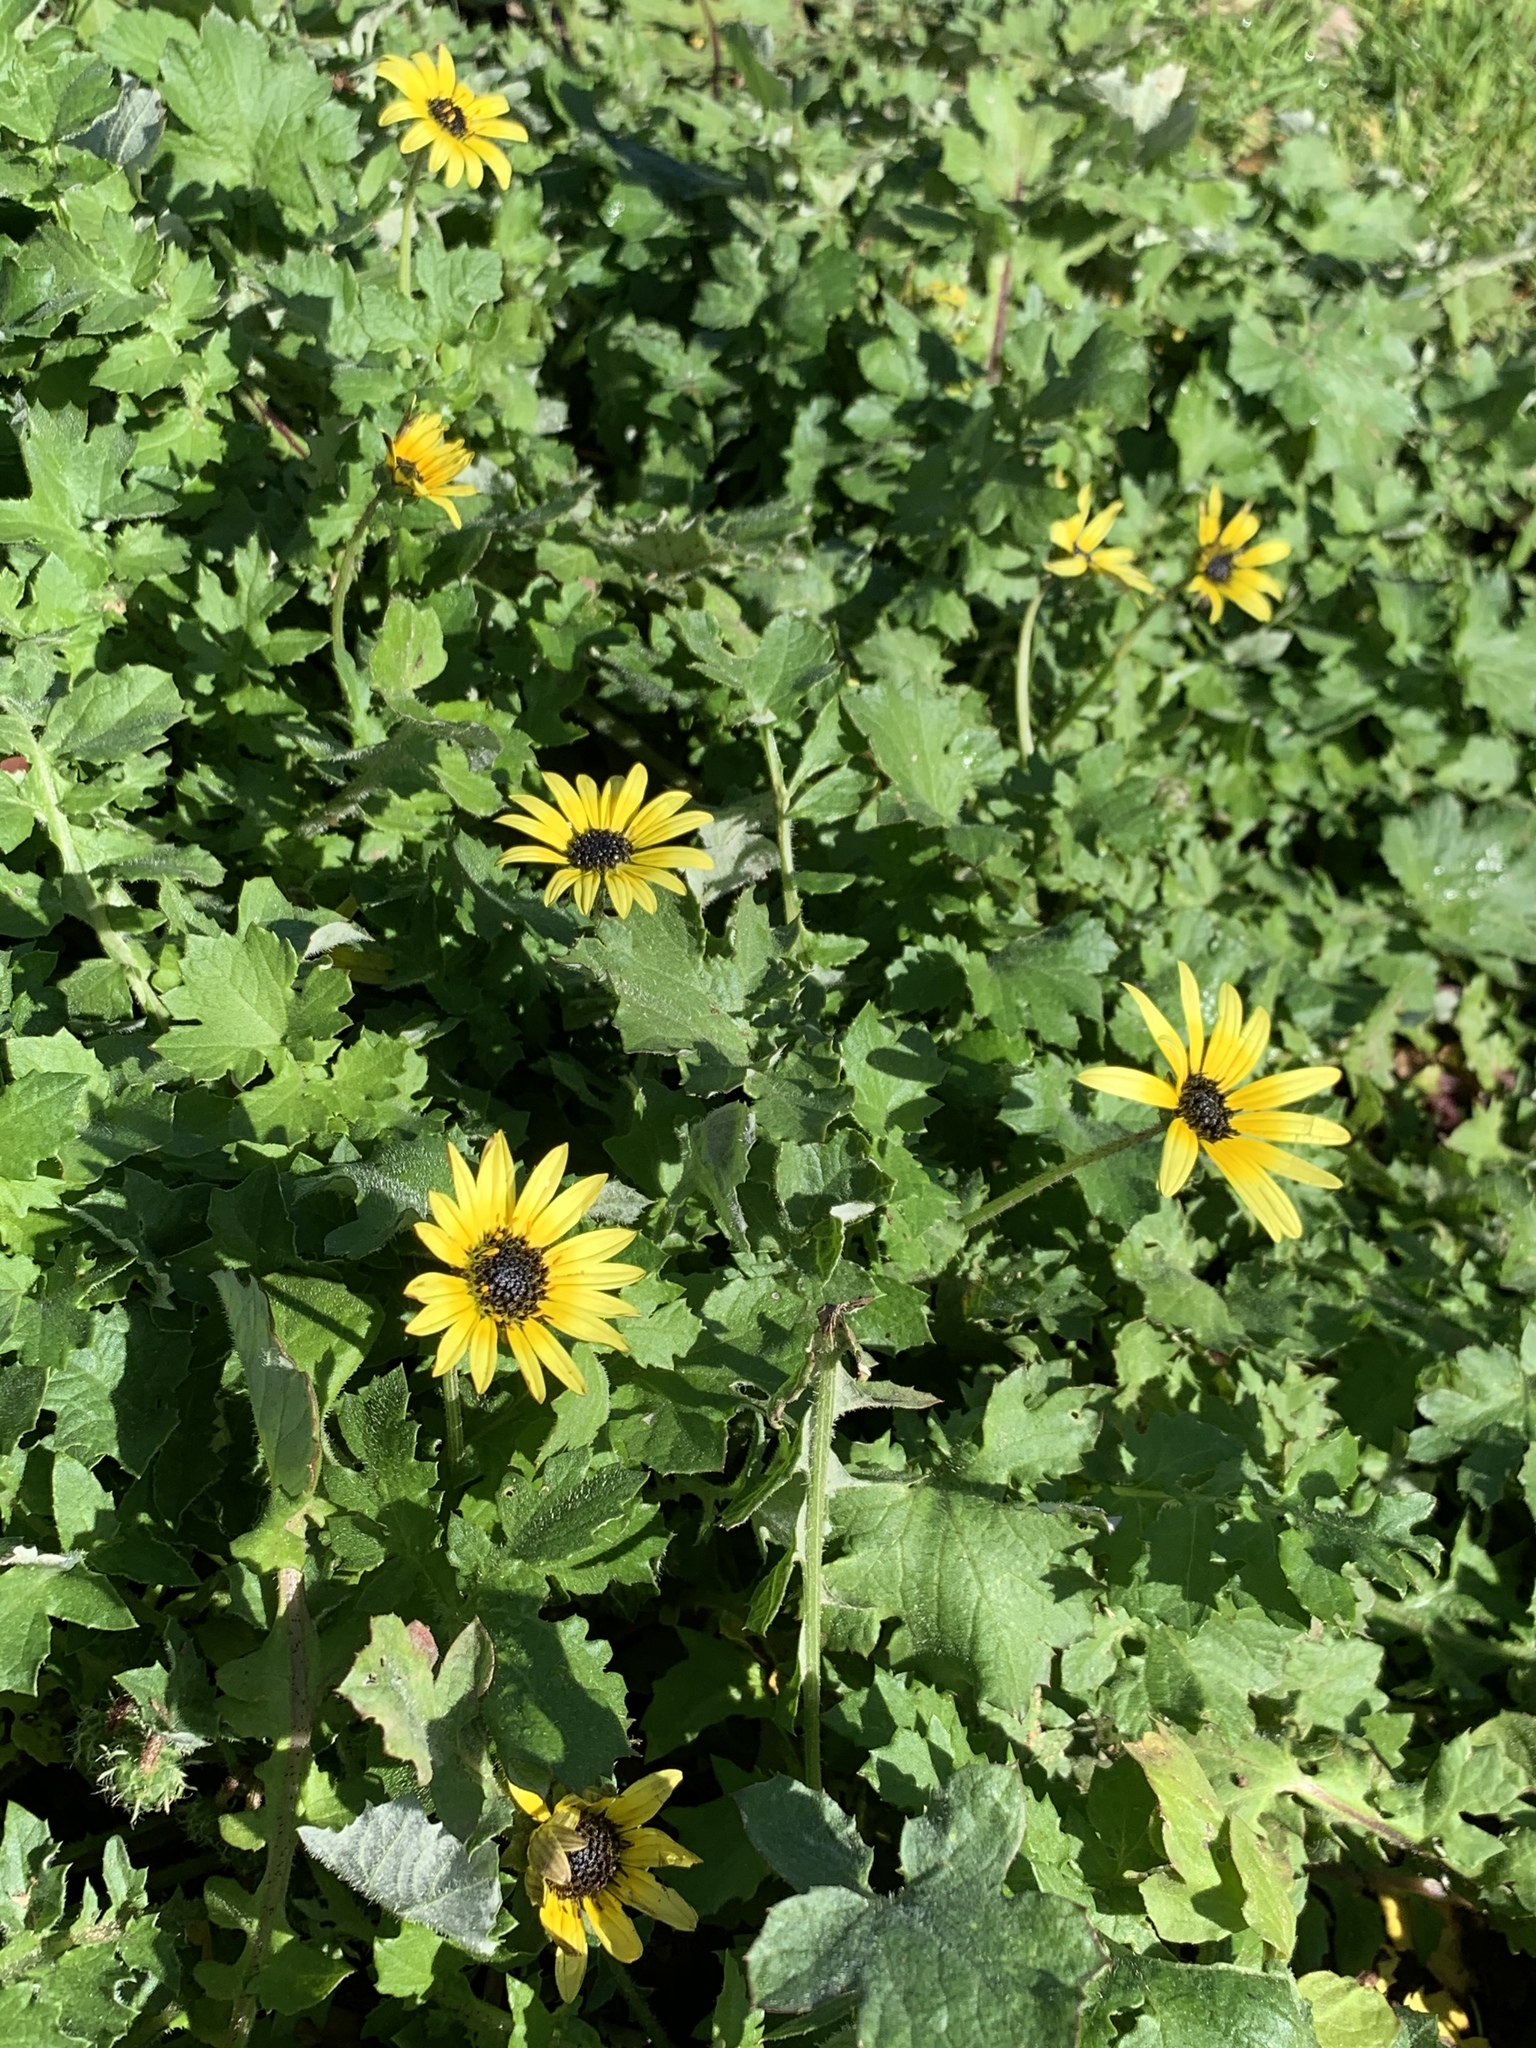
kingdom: Plantae
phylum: Tracheophyta
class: Magnoliopsida
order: Asterales
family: Asteraceae
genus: Arctotheca
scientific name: Arctotheca calendula
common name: Capeweed
